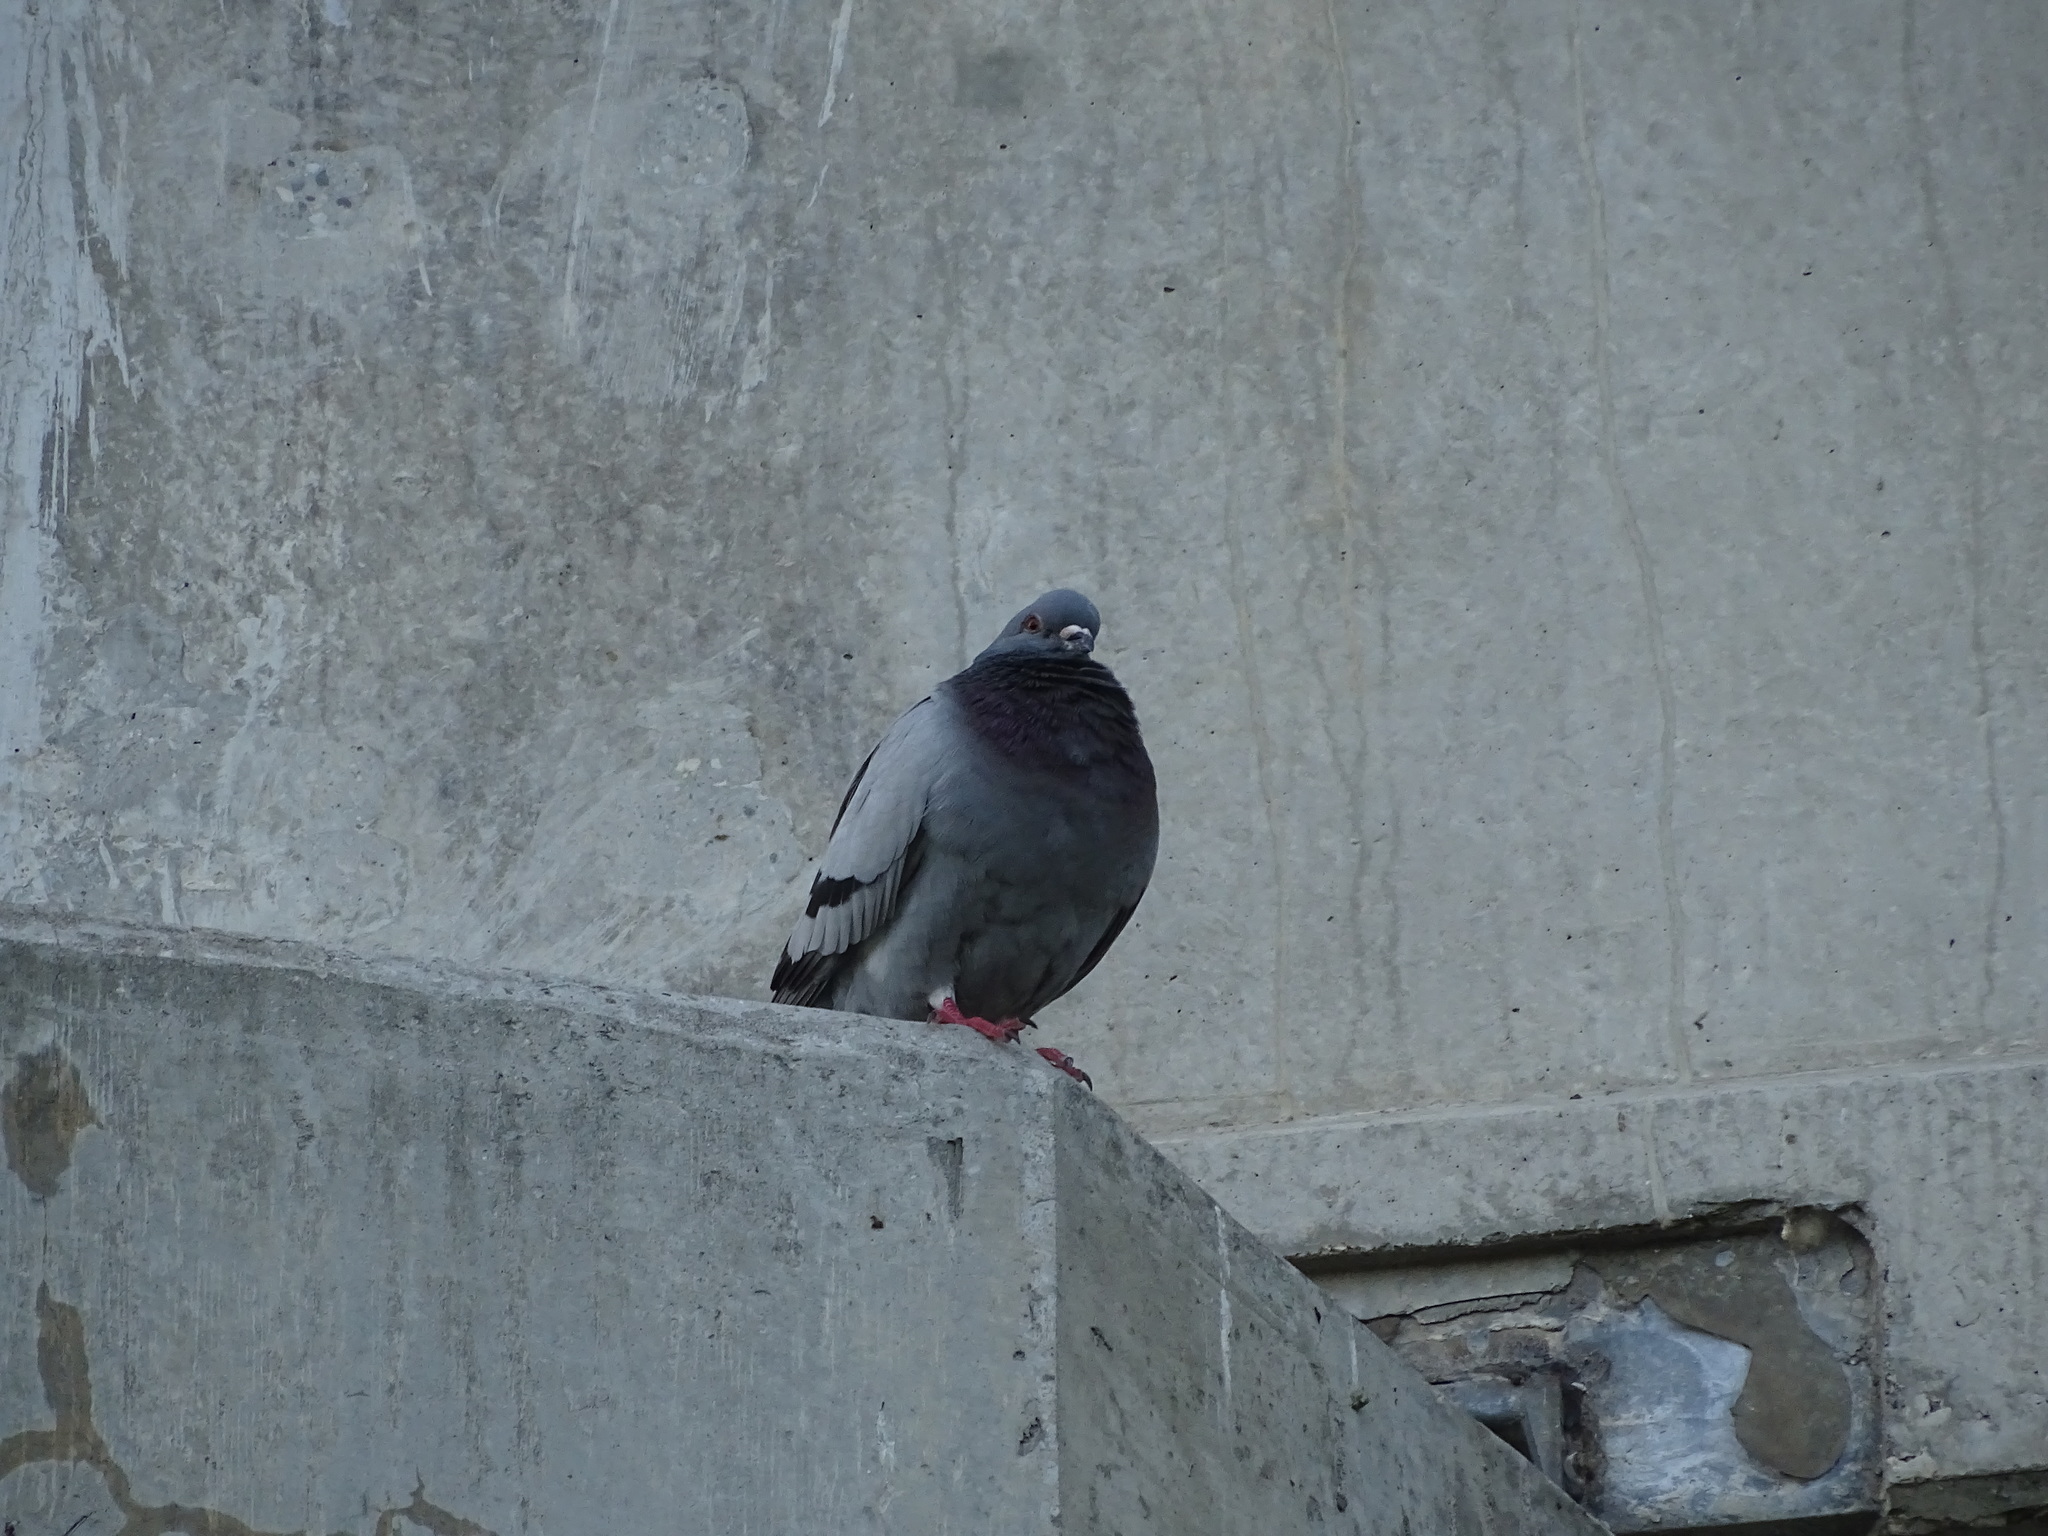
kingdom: Animalia
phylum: Chordata
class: Aves
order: Columbiformes
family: Columbidae
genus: Columba
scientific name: Columba livia
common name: Rock pigeon
